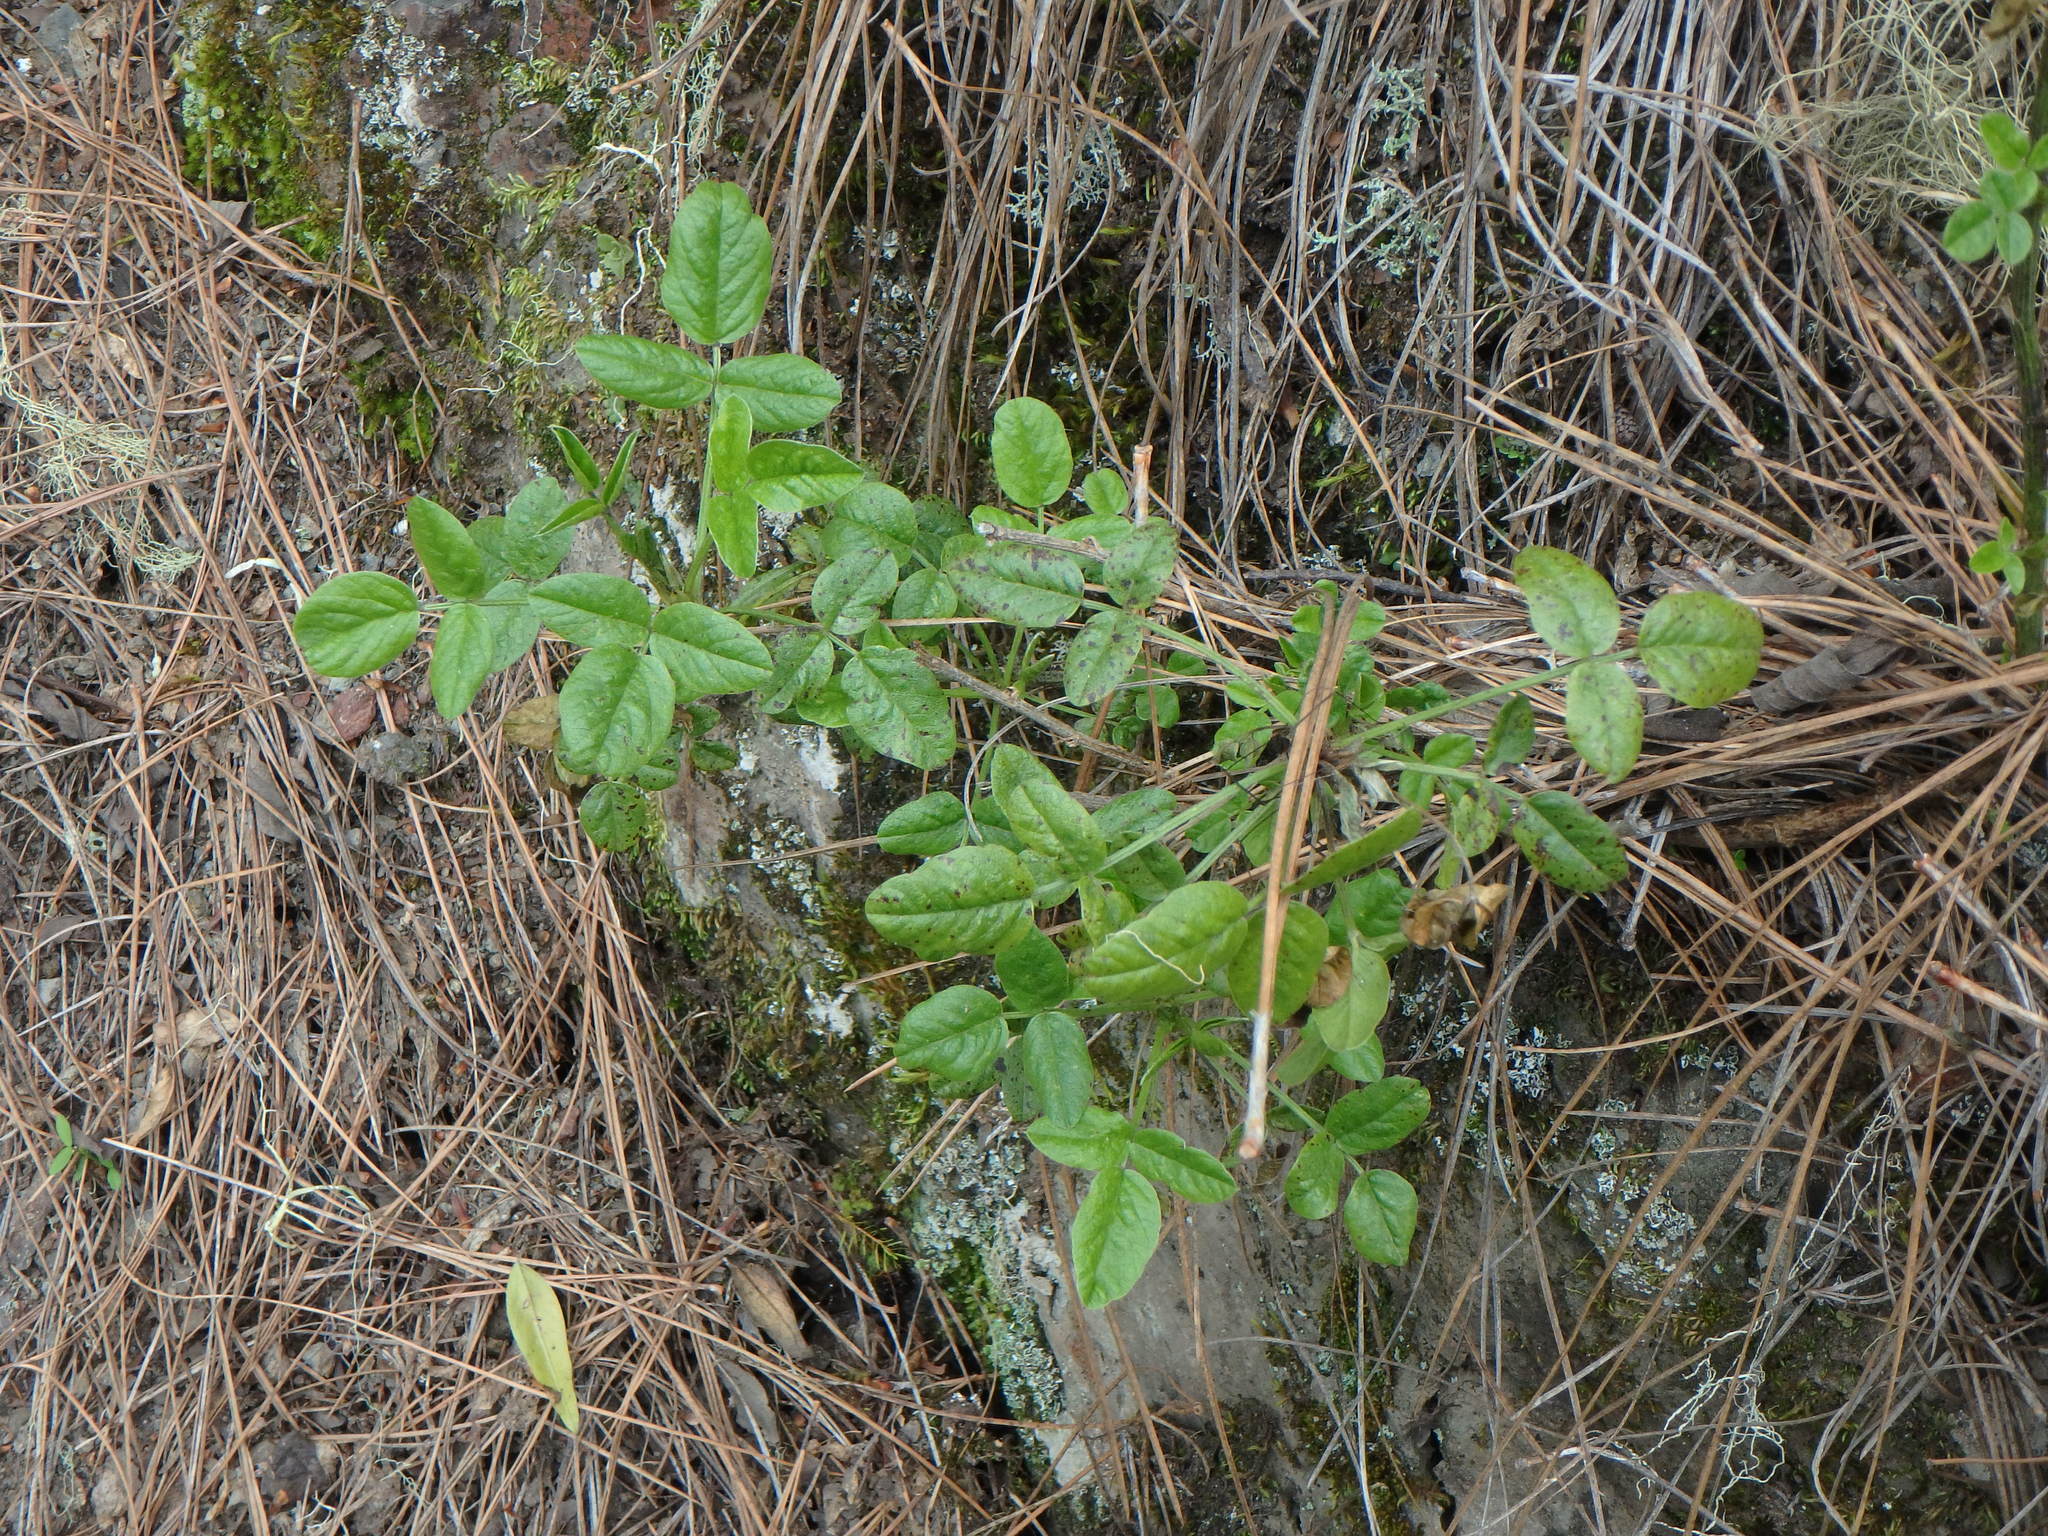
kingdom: Plantae
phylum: Tracheophyta
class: Magnoliopsida
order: Fabales
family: Fabaceae
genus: Bituminaria
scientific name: Bituminaria bituminosa
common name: Arabian pea
